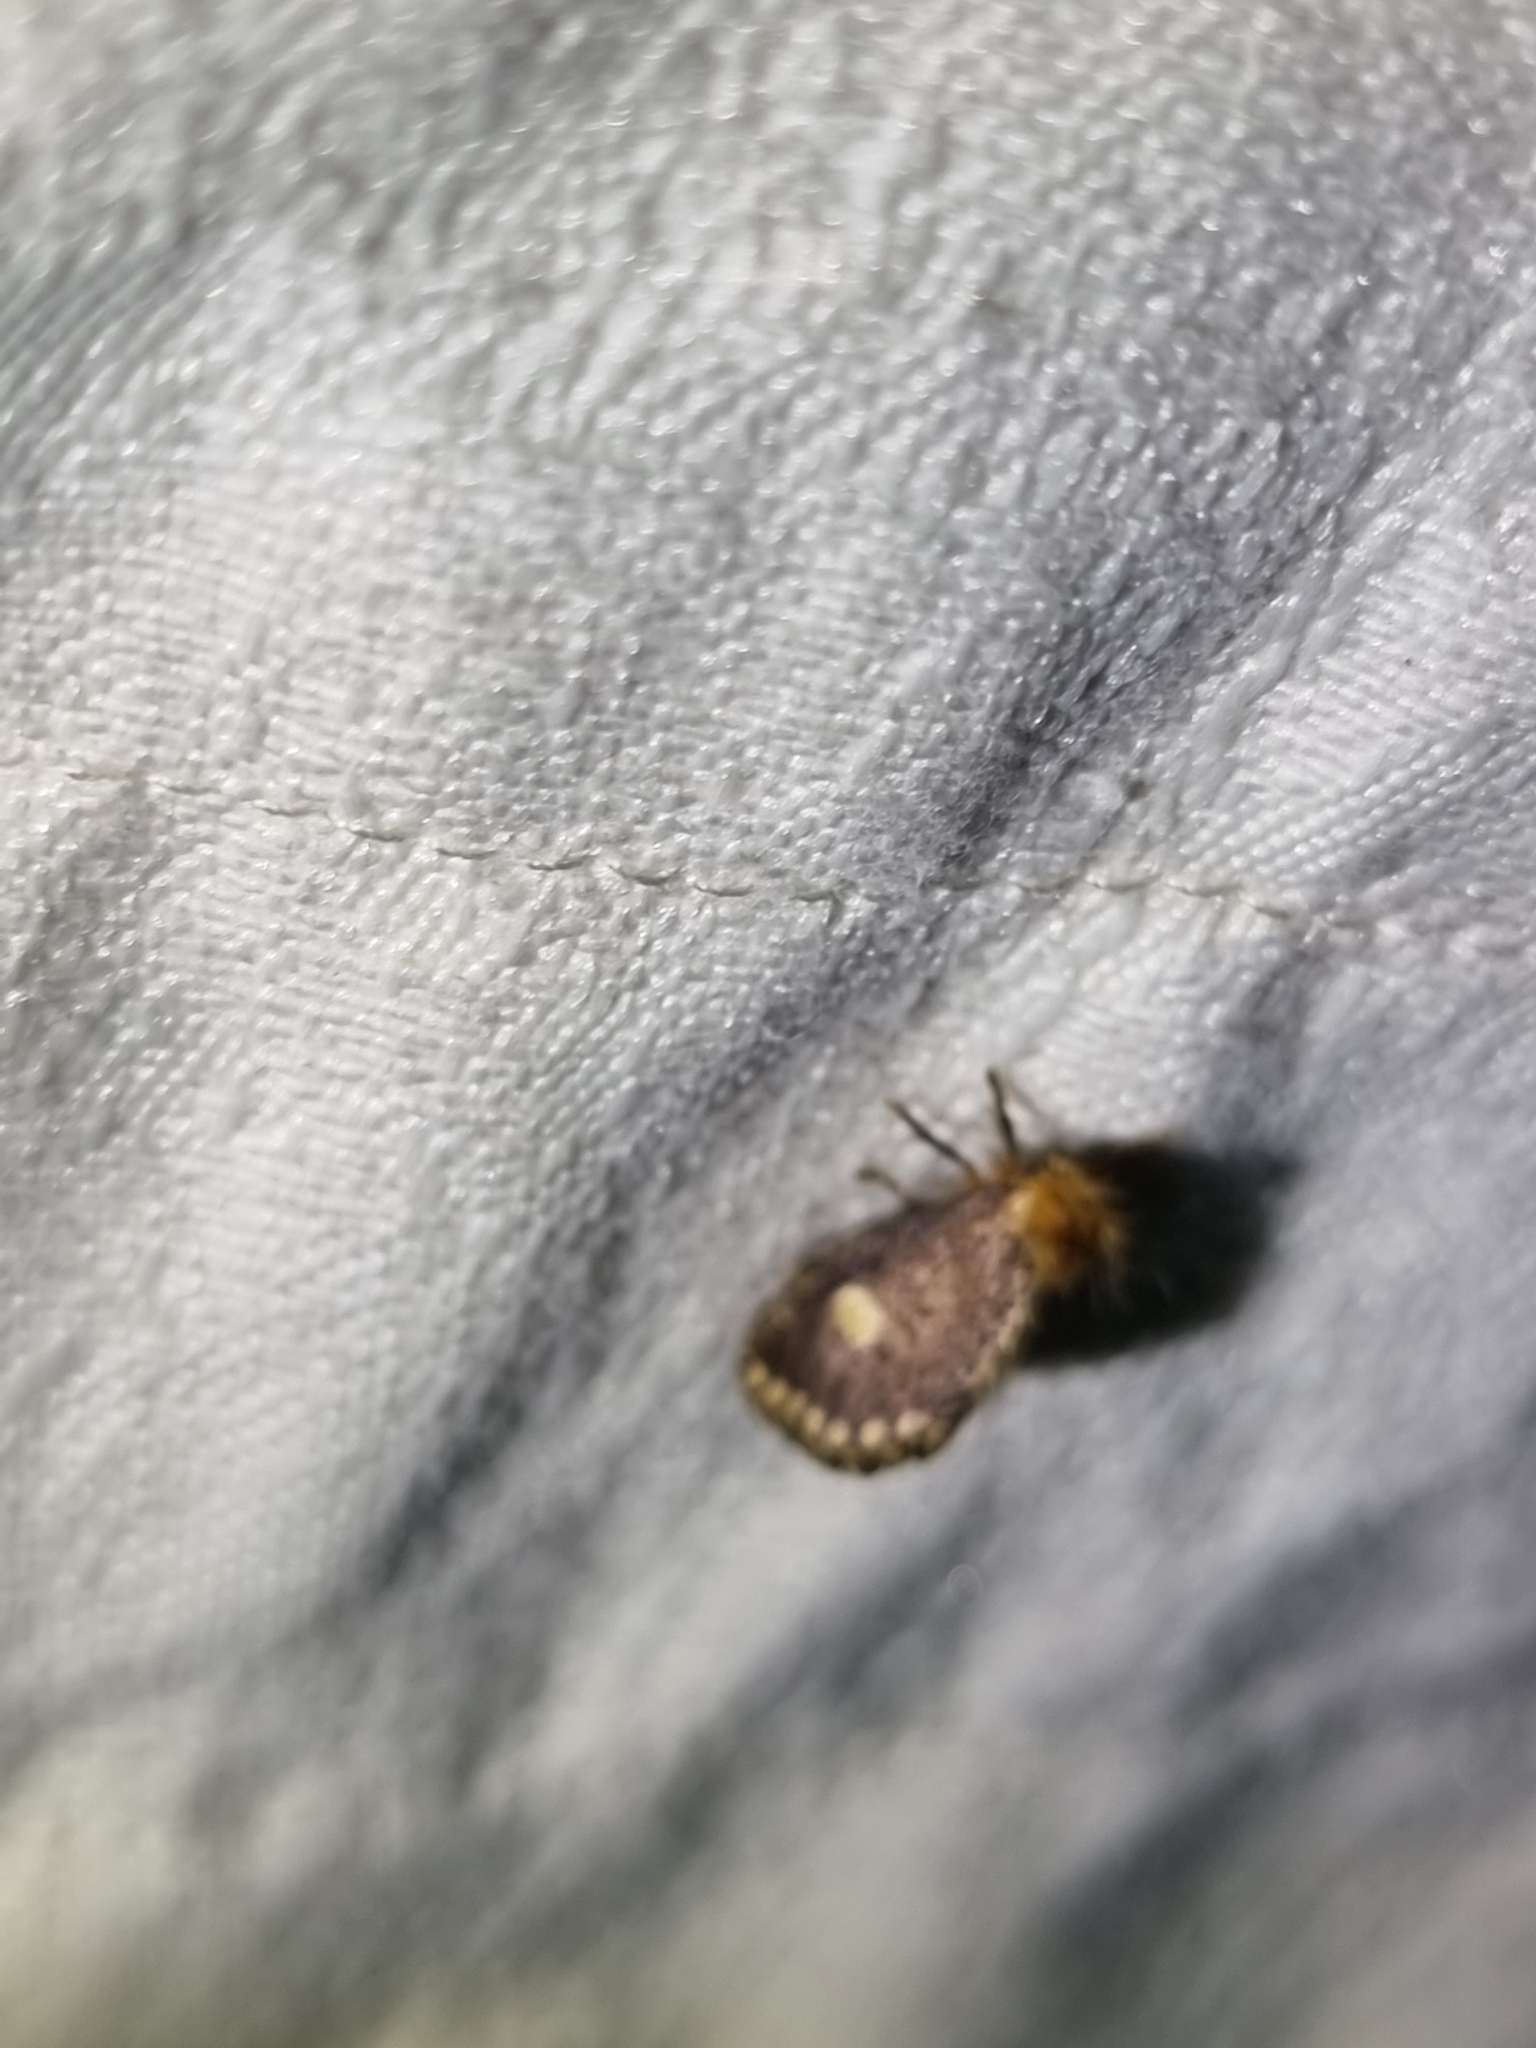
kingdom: Animalia
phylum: Arthropoda
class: Insecta
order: Lepidoptera
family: Notodontidae
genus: Epicoma
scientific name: Epicoma protrahens
